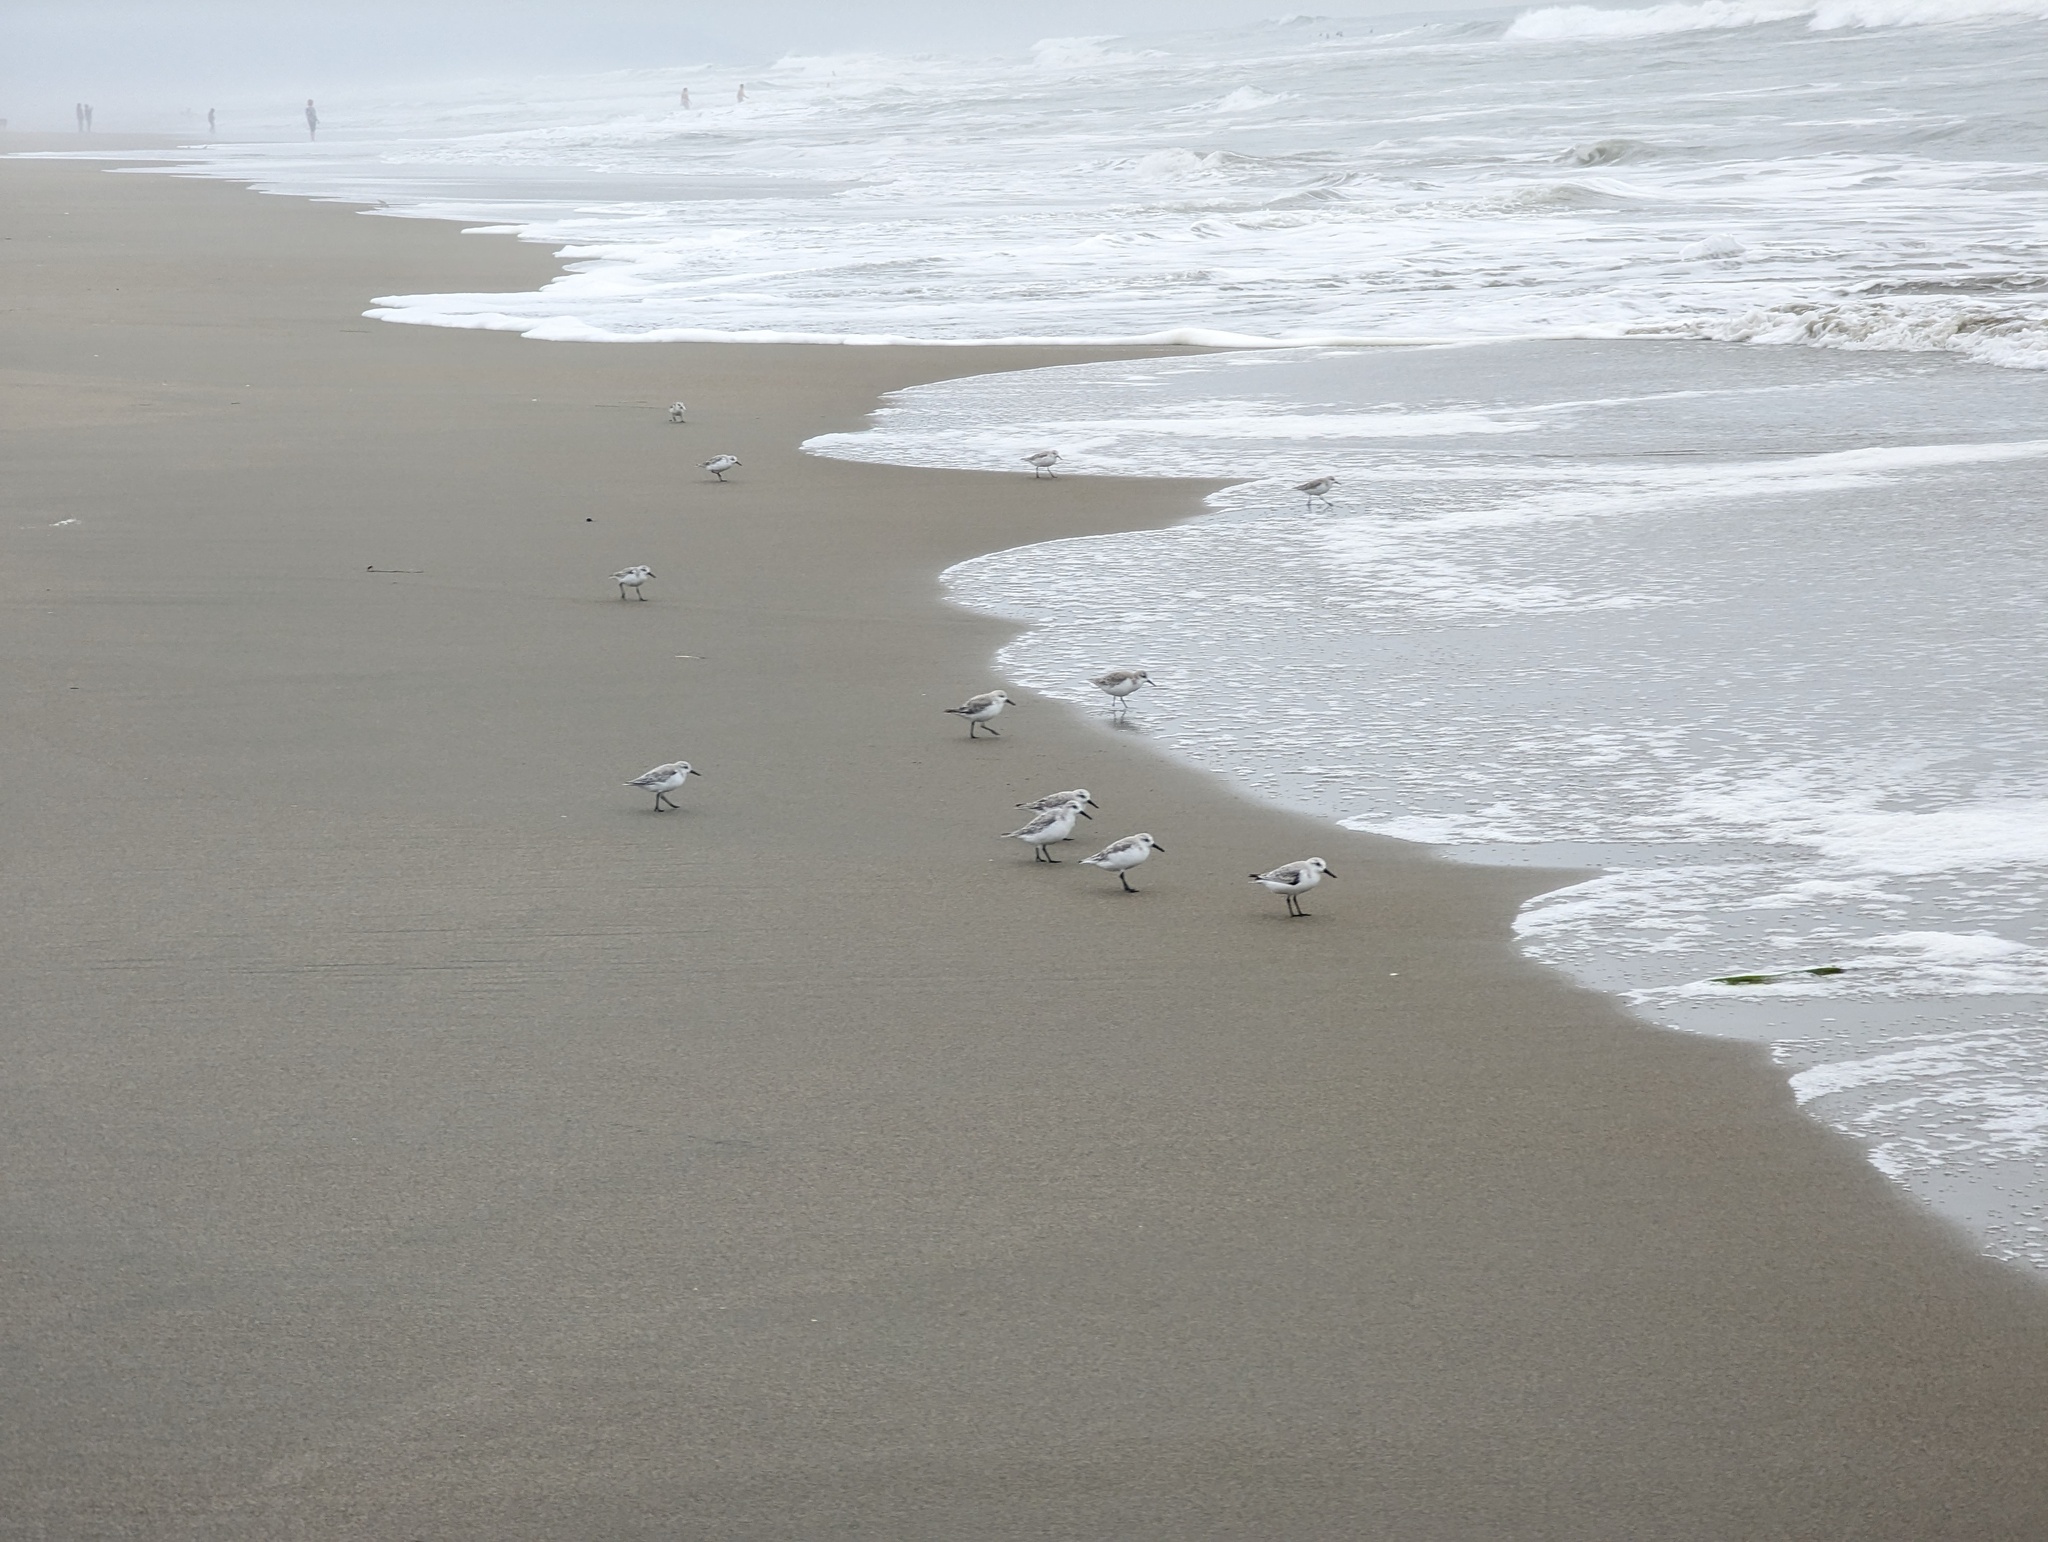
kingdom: Animalia
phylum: Chordata
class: Aves
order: Charadriiformes
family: Scolopacidae
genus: Calidris
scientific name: Calidris alba
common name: Sanderling
